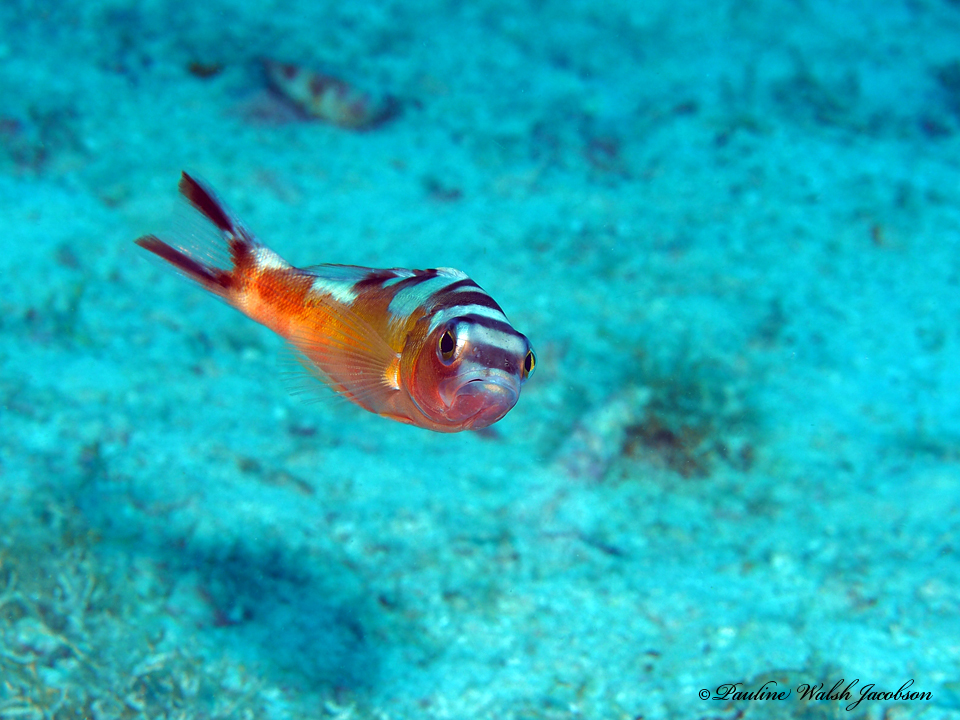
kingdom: Animalia
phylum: Chordata
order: Perciformes
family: Serranidae
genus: Serranus
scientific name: Serranus tabacarius
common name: Tobaccofish
